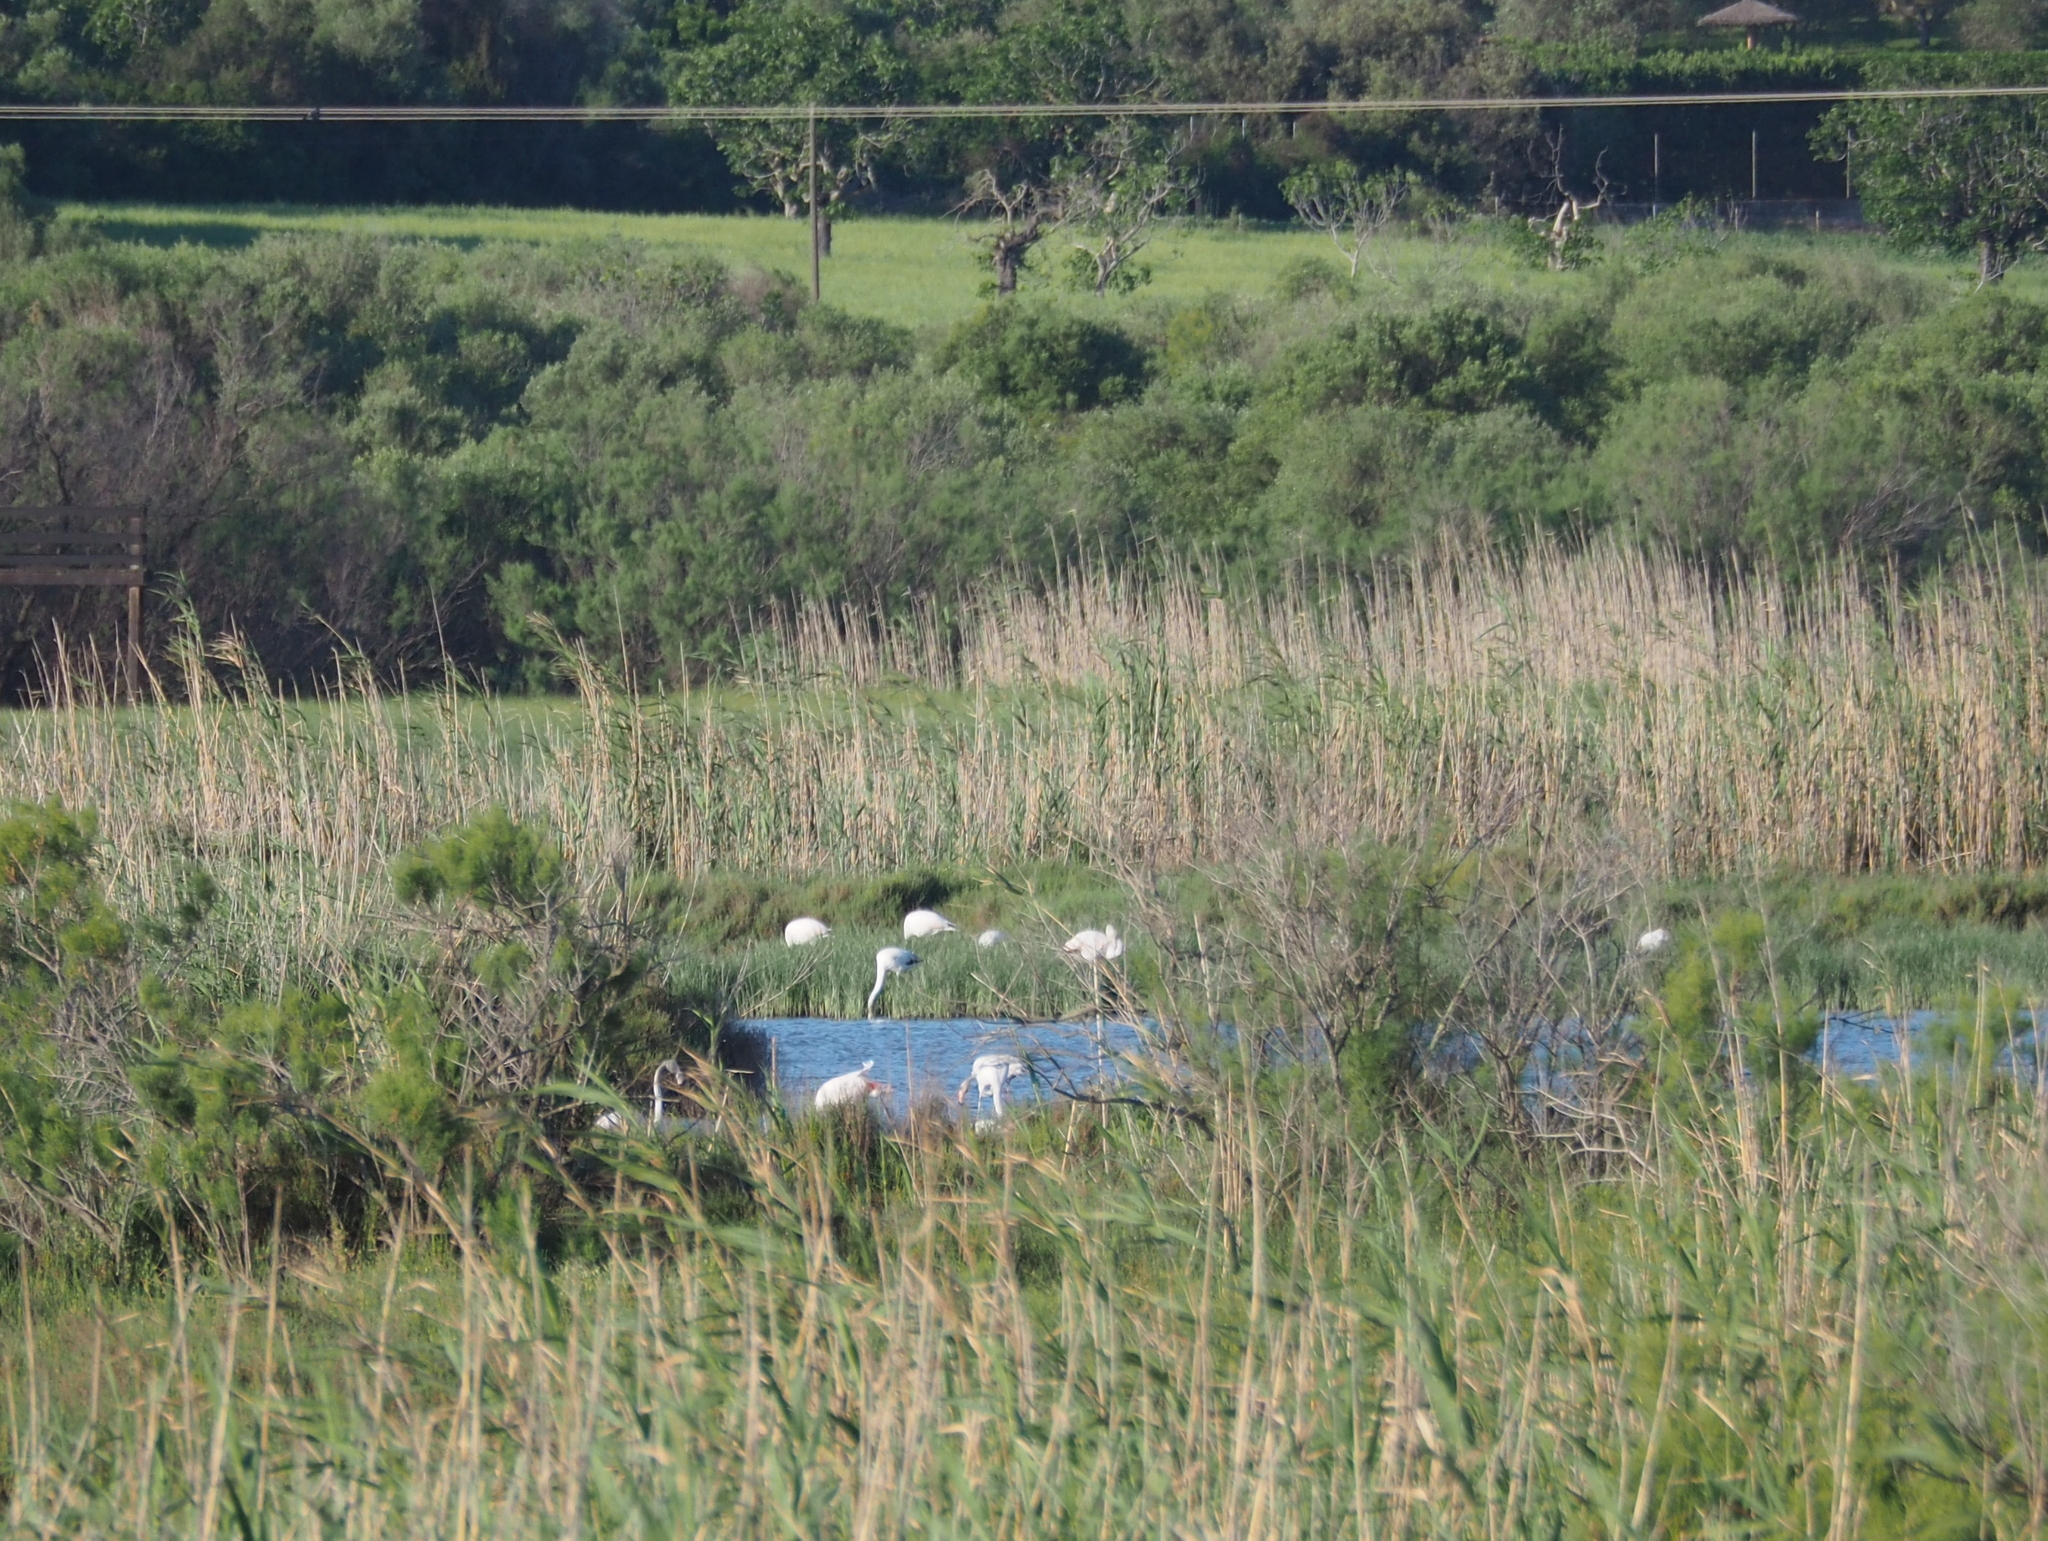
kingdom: Animalia
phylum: Chordata
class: Aves
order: Phoenicopteriformes
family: Phoenicopteridae
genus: Phoenicopterus
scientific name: Phoenicopterus roseus
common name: Greater flamingo
